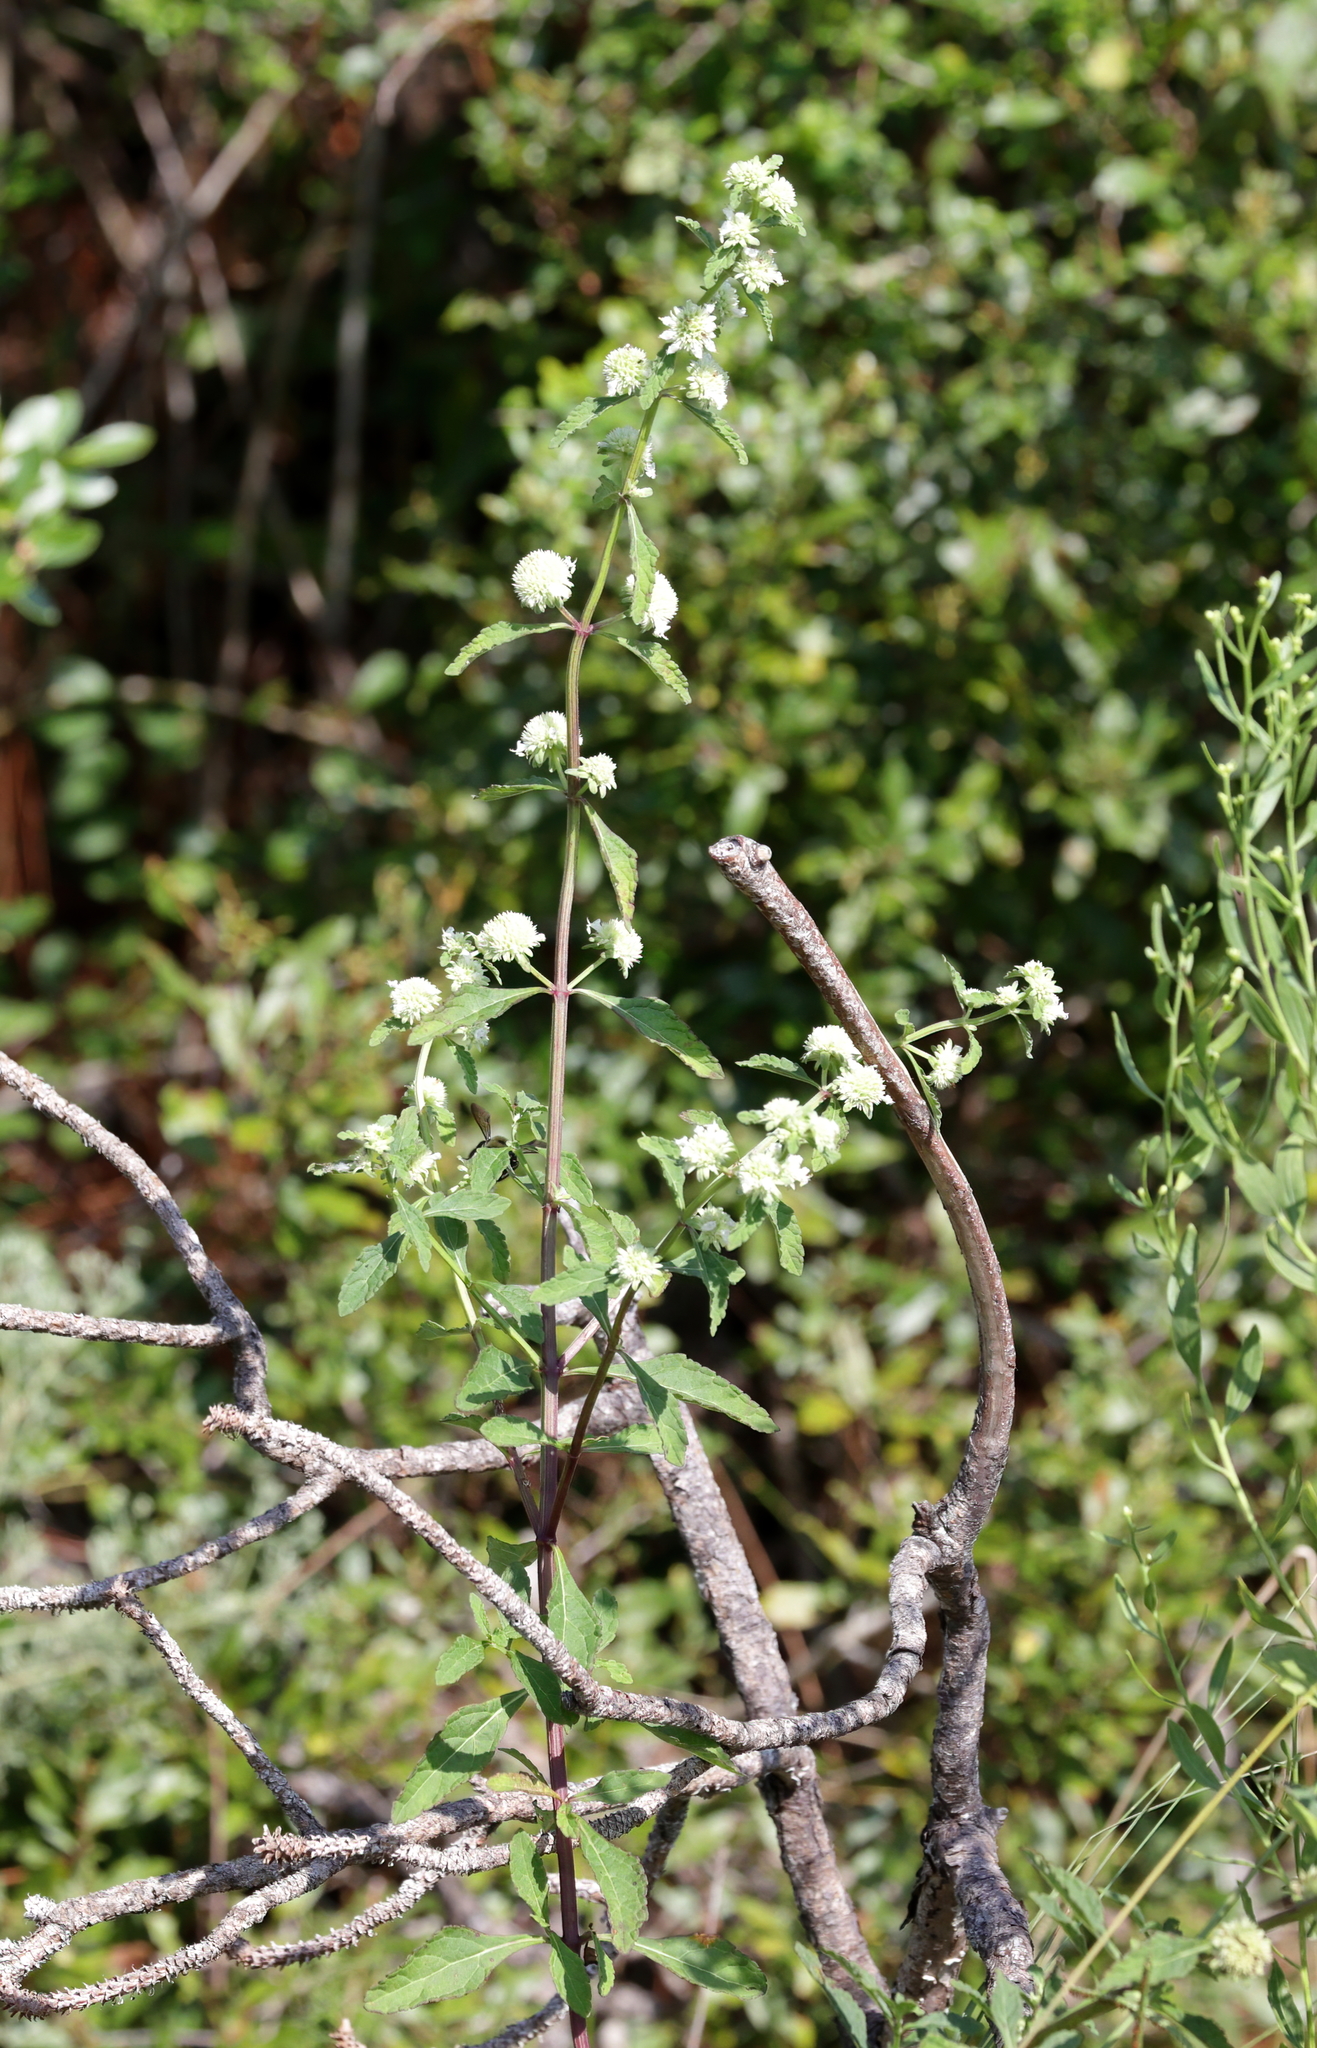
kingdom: Plantae
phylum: Tracheophyta
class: Magnoliopsida
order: Lamiales
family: Lamiaceae
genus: Hyptis
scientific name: Hyptis alata
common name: Cluster bush-mint
